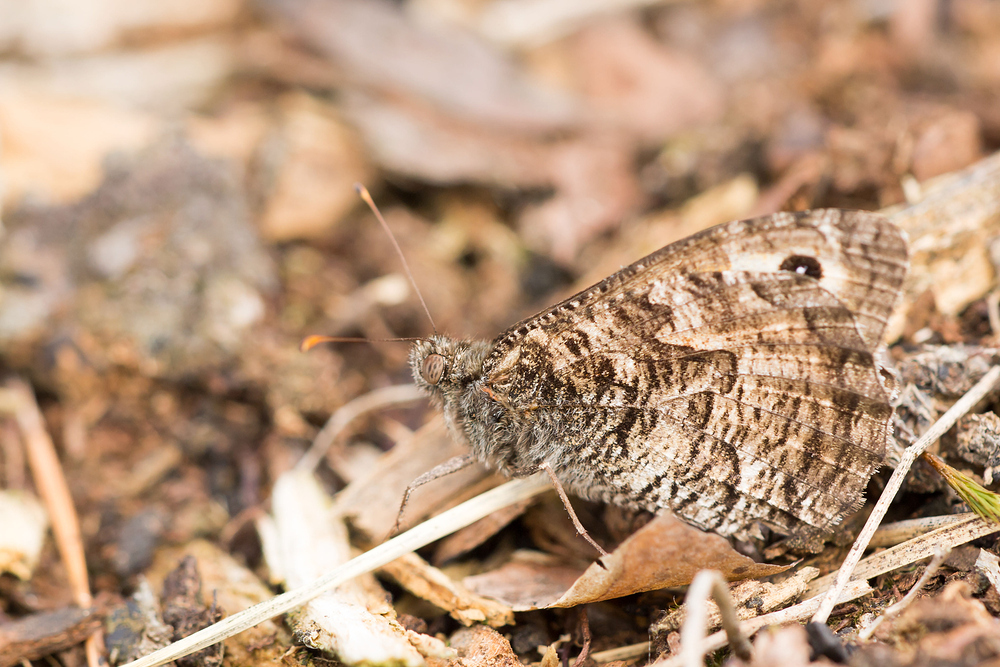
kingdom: Animalia
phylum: Arthropoda
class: Insecta
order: Lepidoptera
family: Nymphalidae
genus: Hipparchia
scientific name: Hipparchia semele
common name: Grayling
